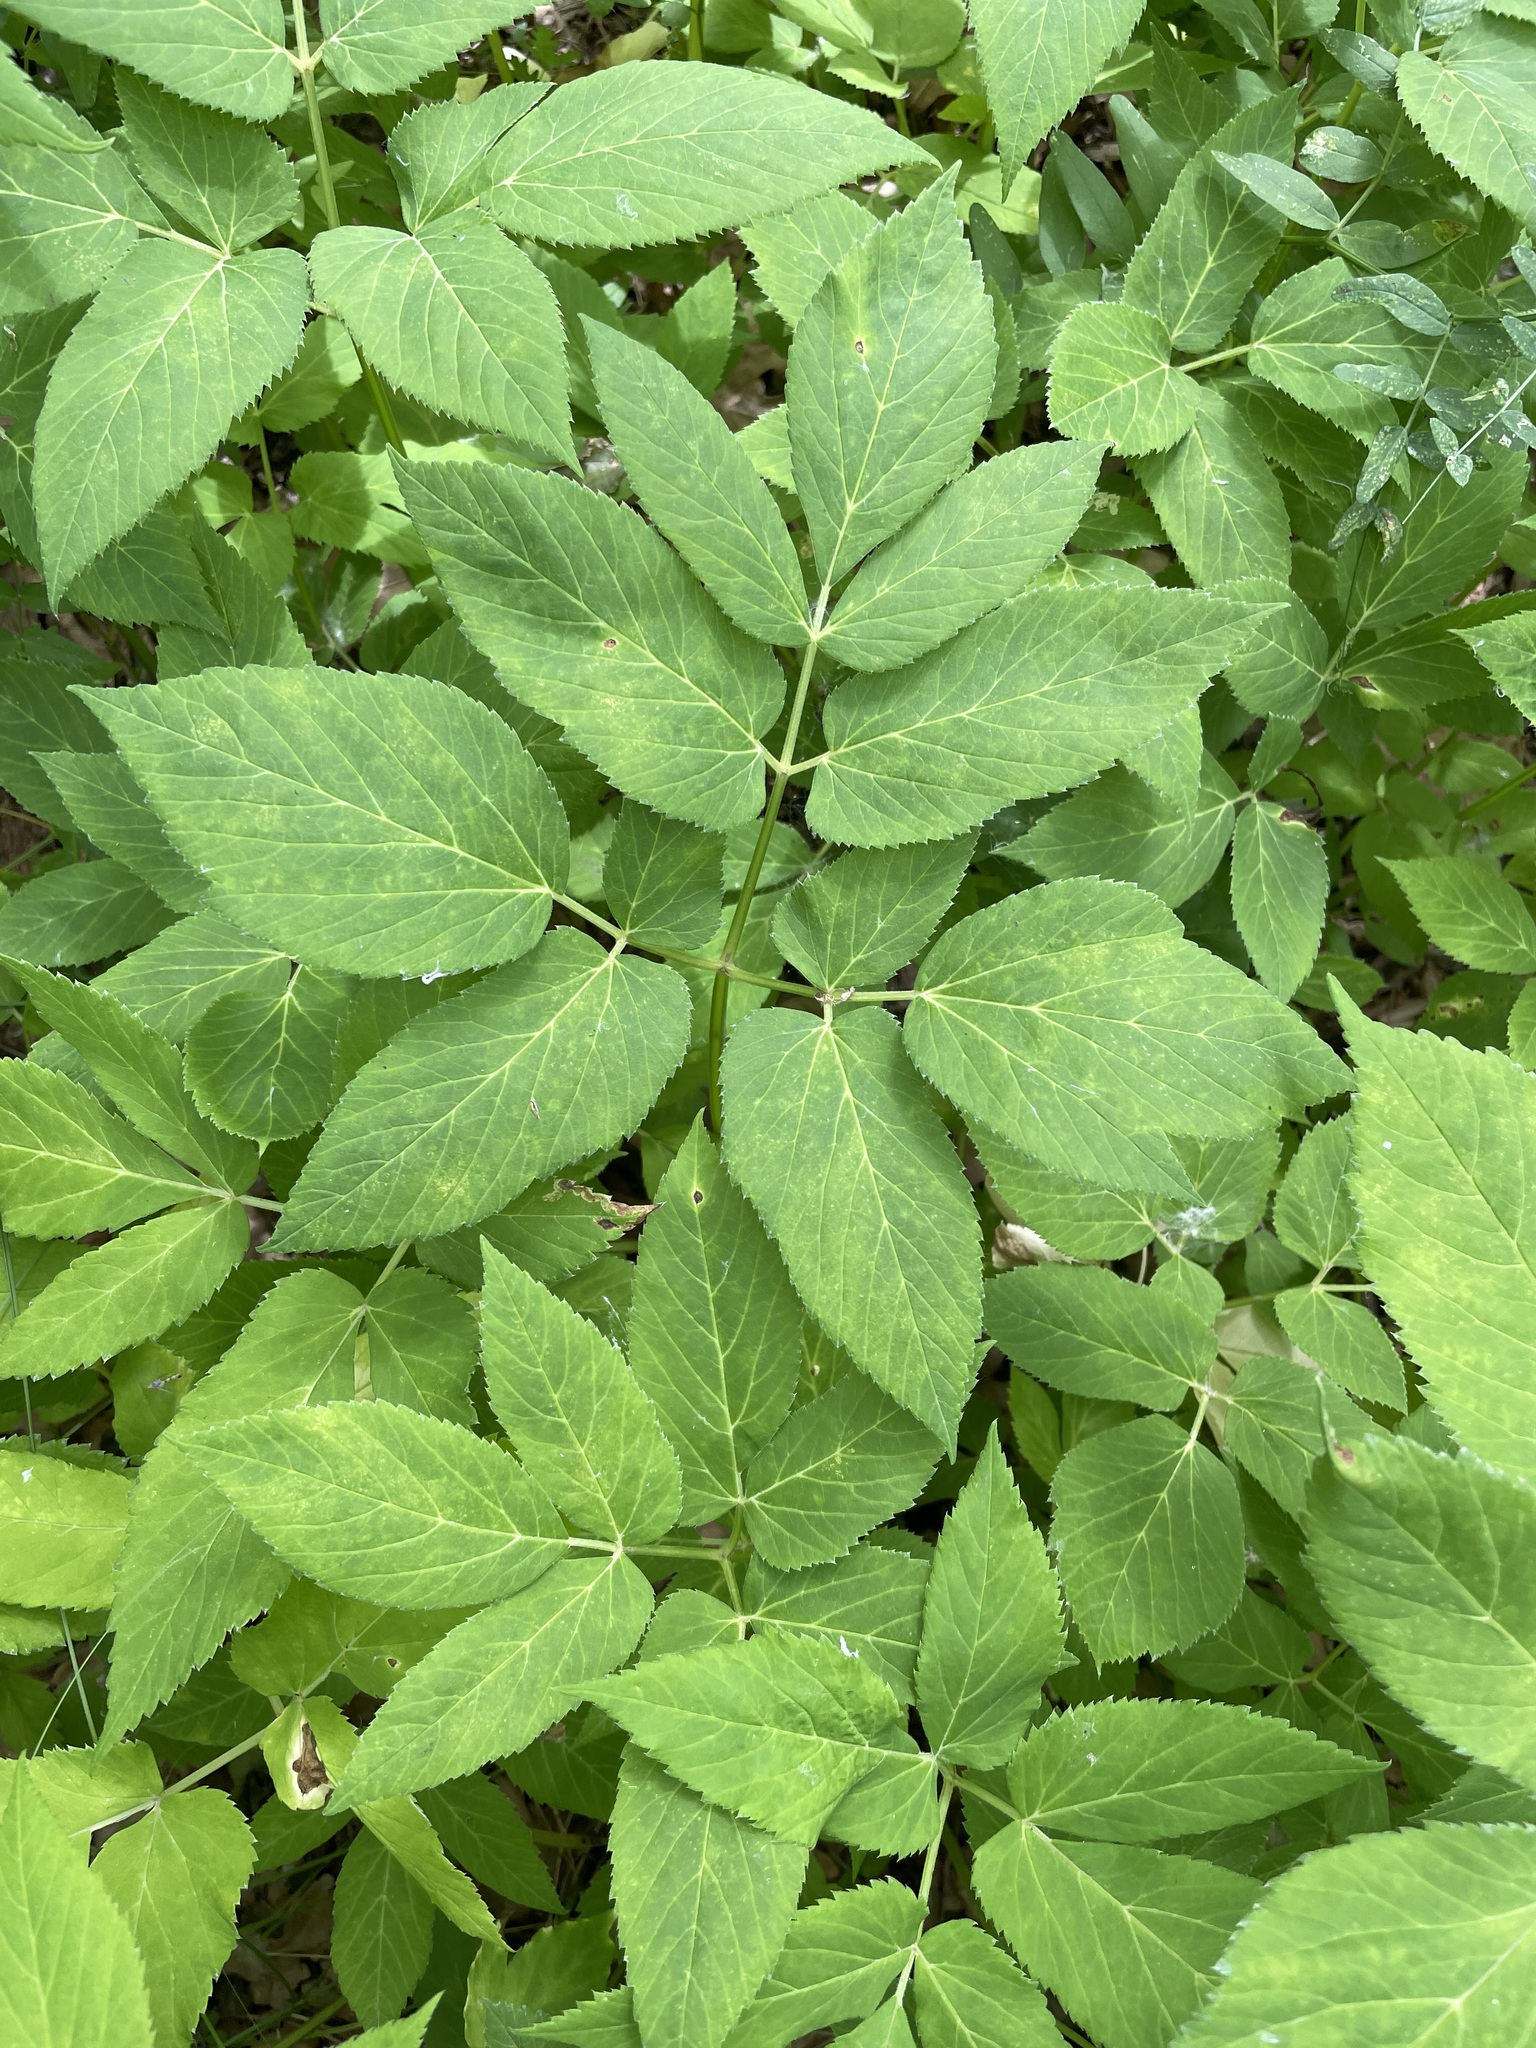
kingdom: Plantae
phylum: Tracheophyta
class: Magnoliopsida
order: Apiales
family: Apiaceae
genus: Aegopodium
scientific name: Aegopodium podagraria
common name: Ground-elder
